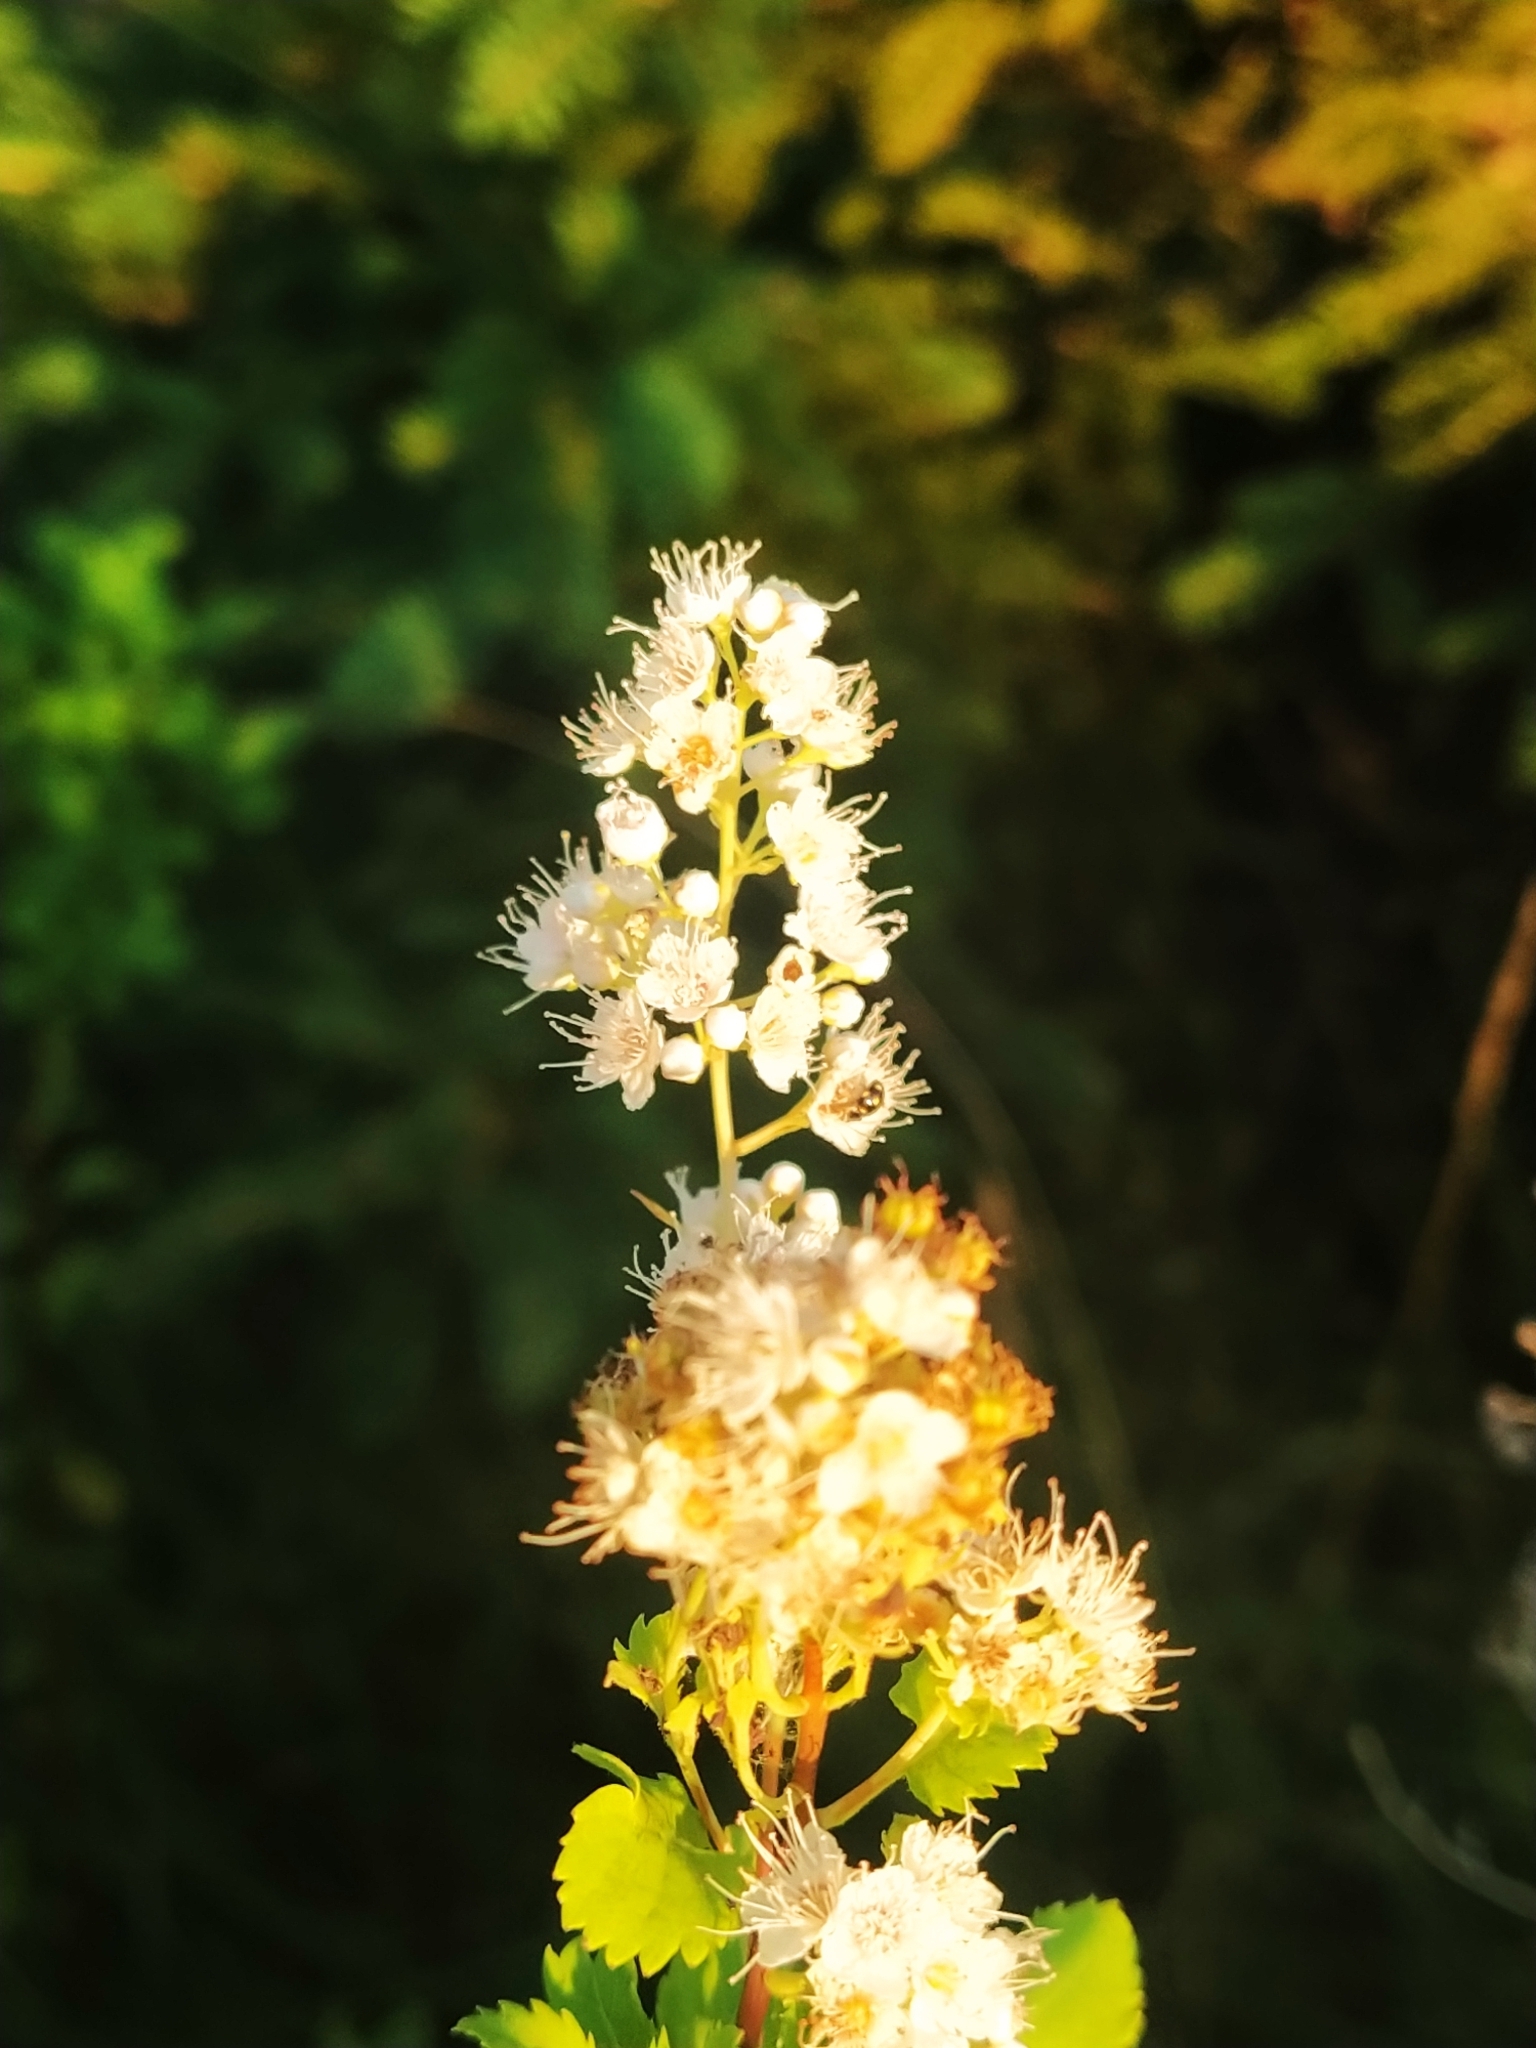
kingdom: Plantae
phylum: Tracheophyta
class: Magnoliopsida
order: Rosales
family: Rosaceae
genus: Spiraea
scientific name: Spiraea alba
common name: Pale bridewort
